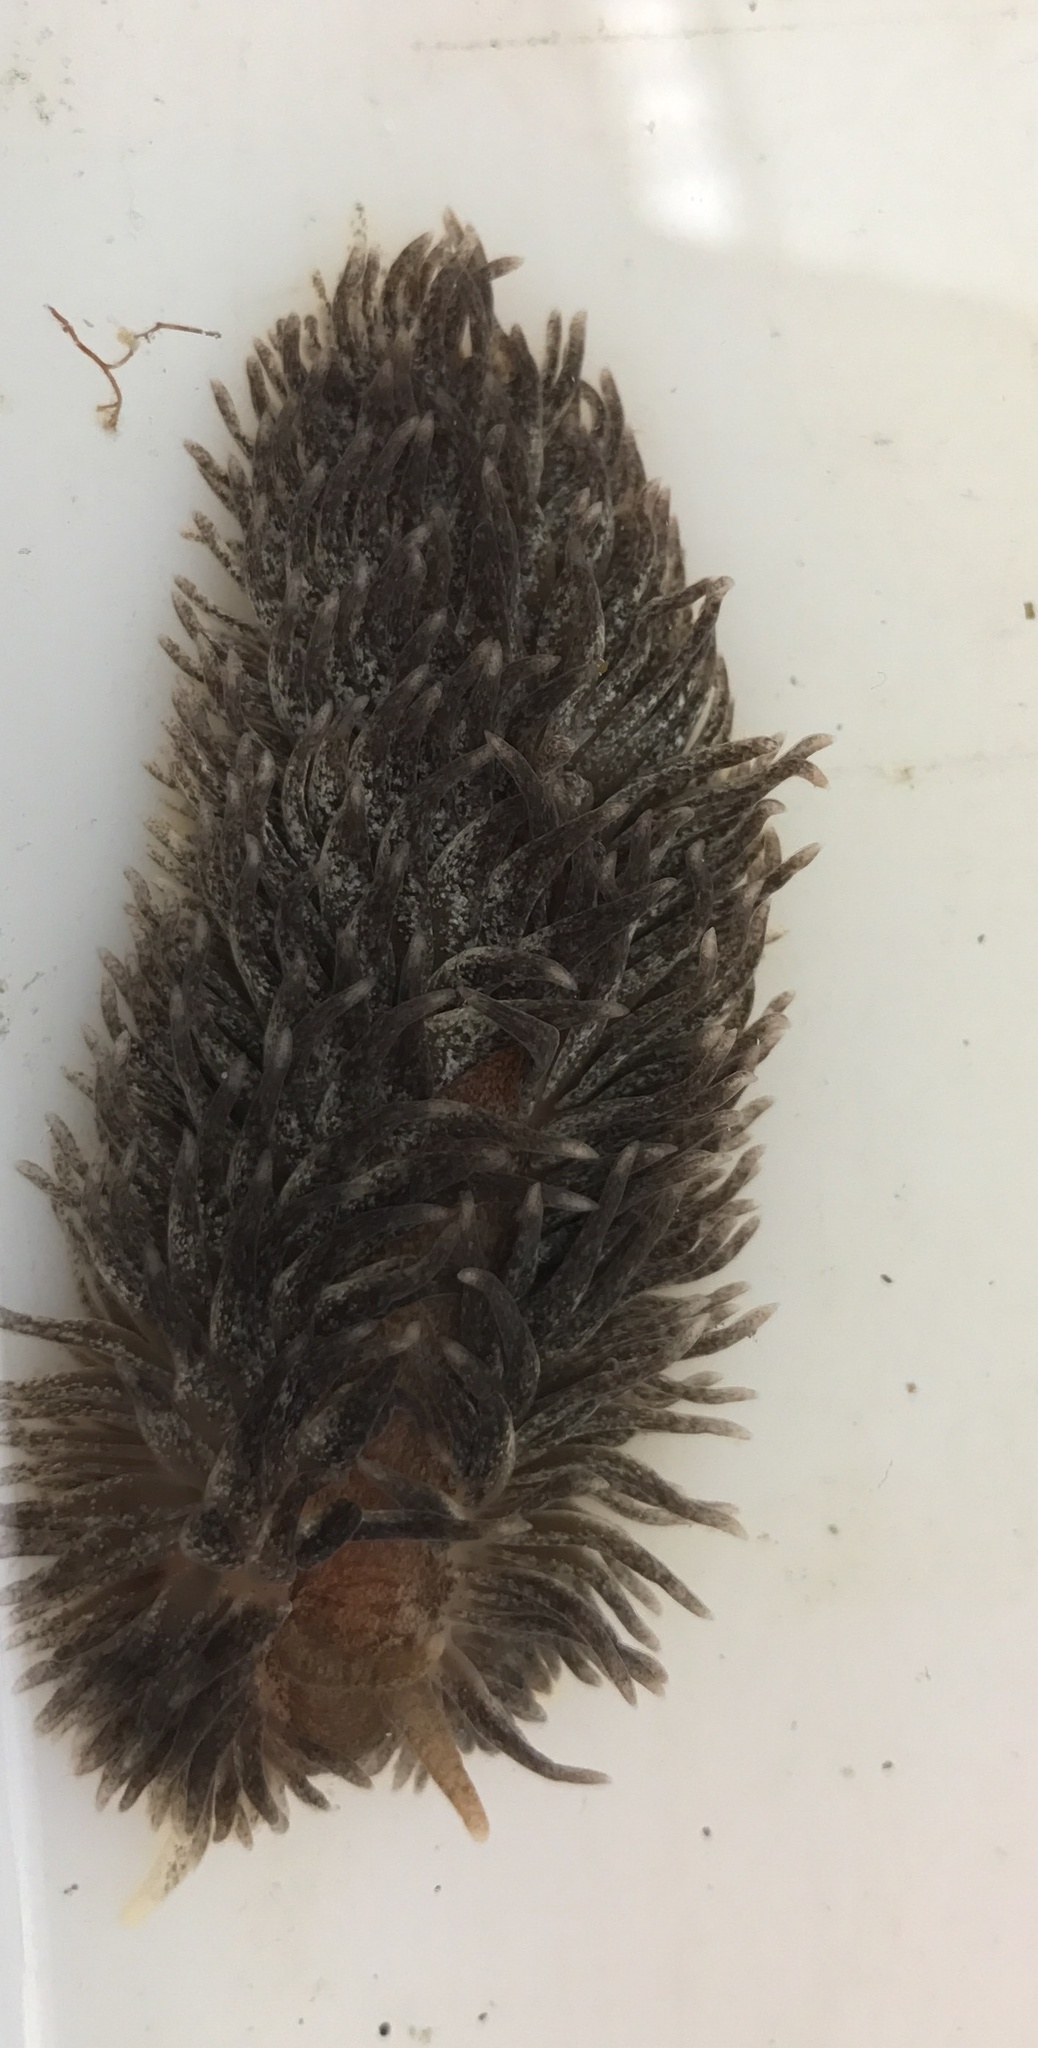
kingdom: Animalia
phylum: Mollusca
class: Gastropoda
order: Nudibranchia
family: Aeolidiidae
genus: Aeolidia
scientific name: Aeolidia papillosa
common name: Common grey sea slug
